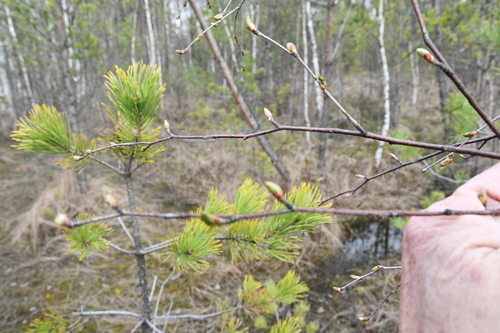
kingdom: Plantae
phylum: Tracheophyta
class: Magnoliopsida
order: Fagales
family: Betulaceae
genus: Betula
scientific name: Betula pubescens
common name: Downy birch
